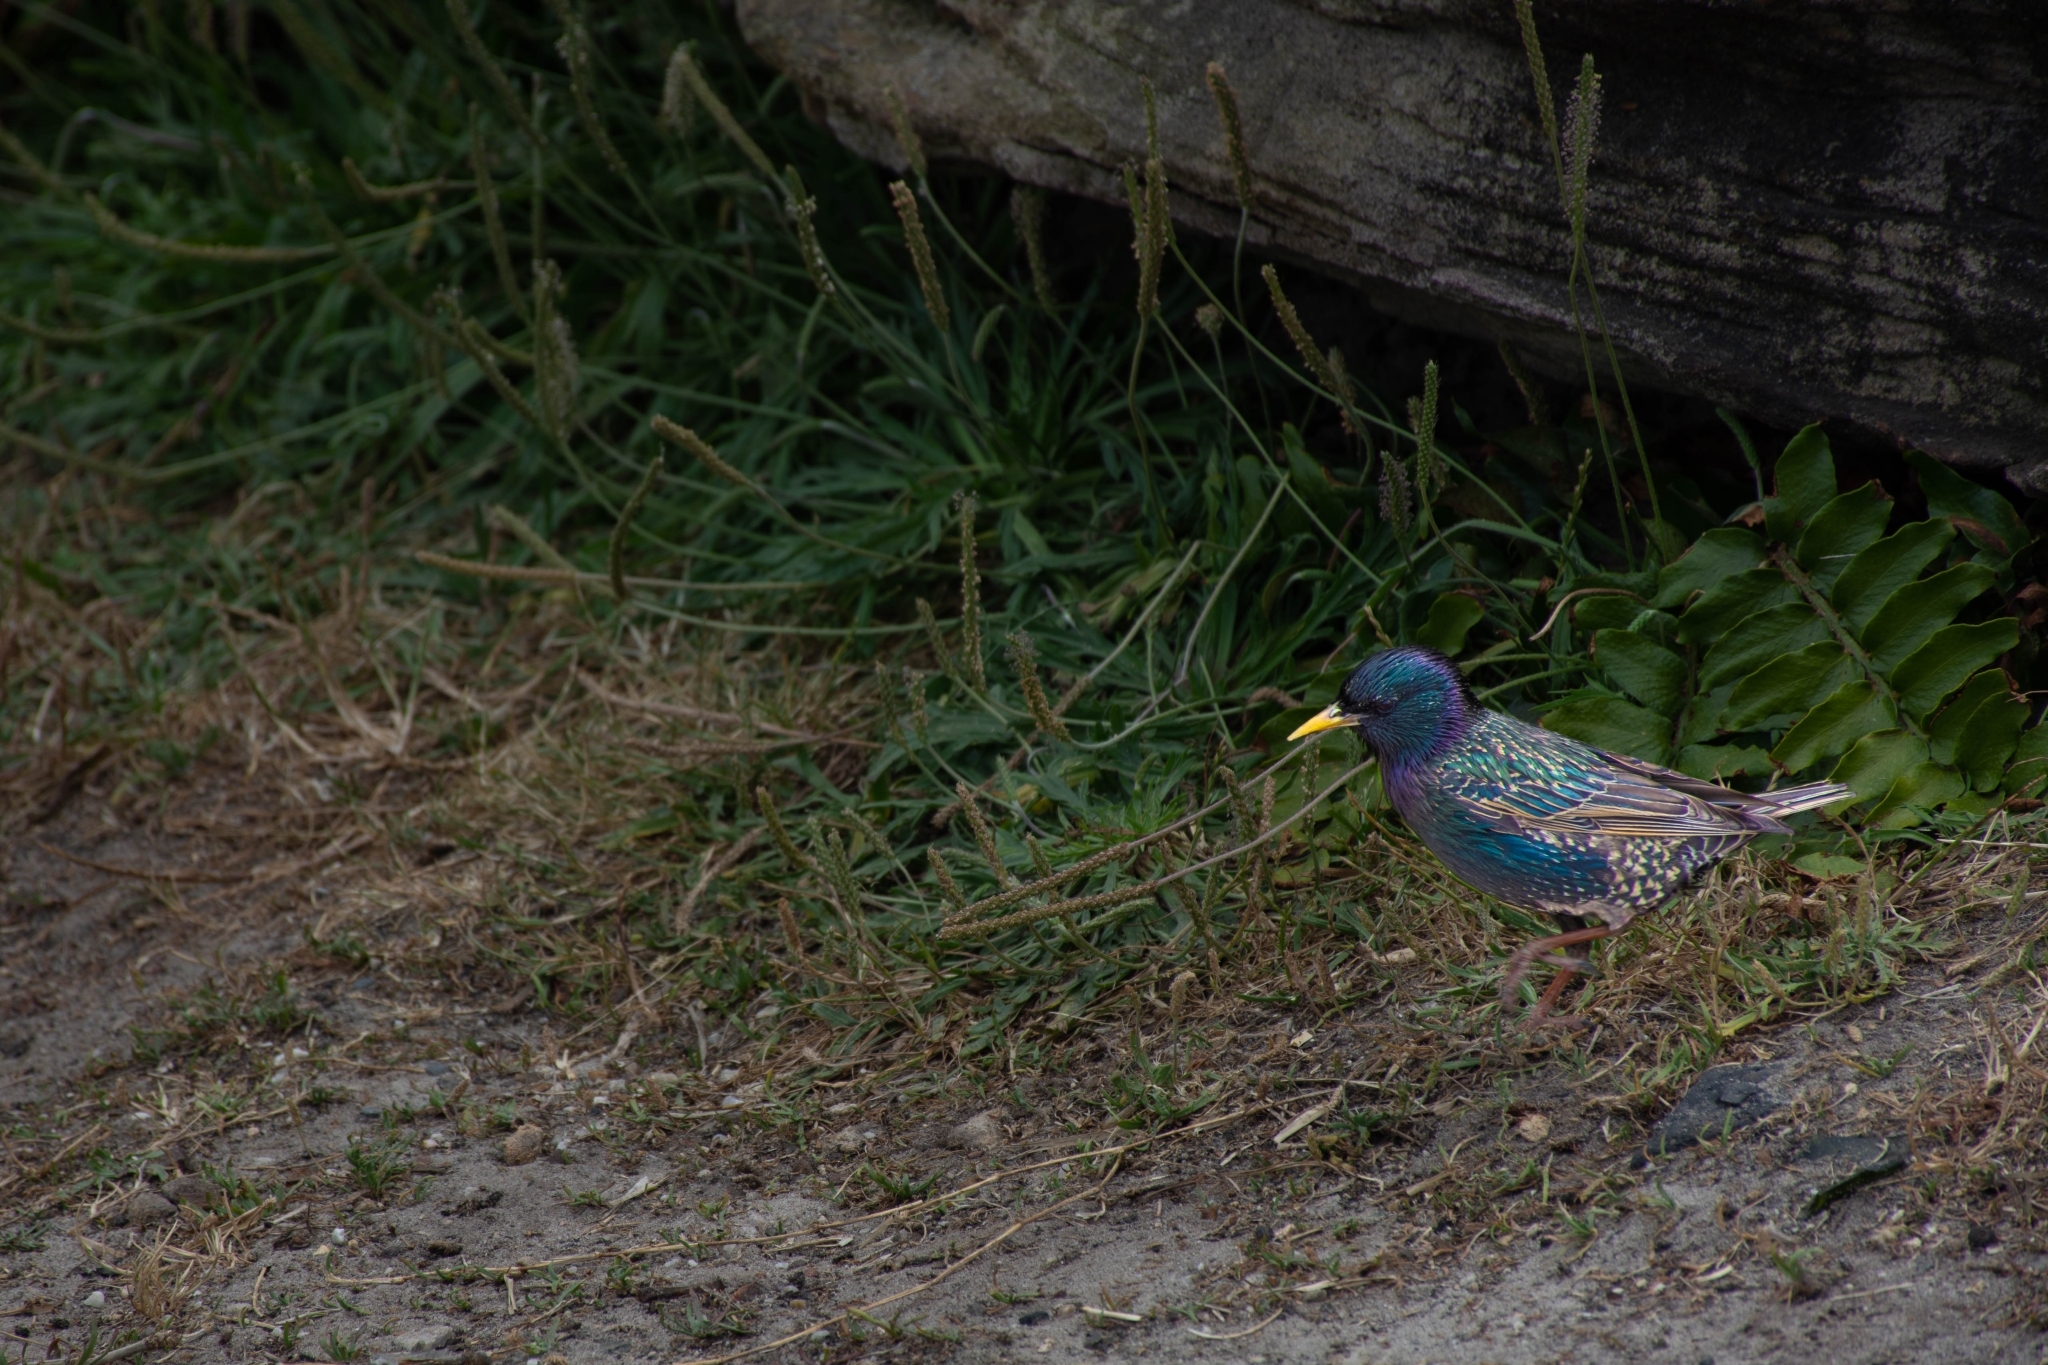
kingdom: Animalia
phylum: Chordata
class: Aves
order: Passeriformes
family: Sturnidae
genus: Sturnus
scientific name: Sturnus vulgaris
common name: Common starling
